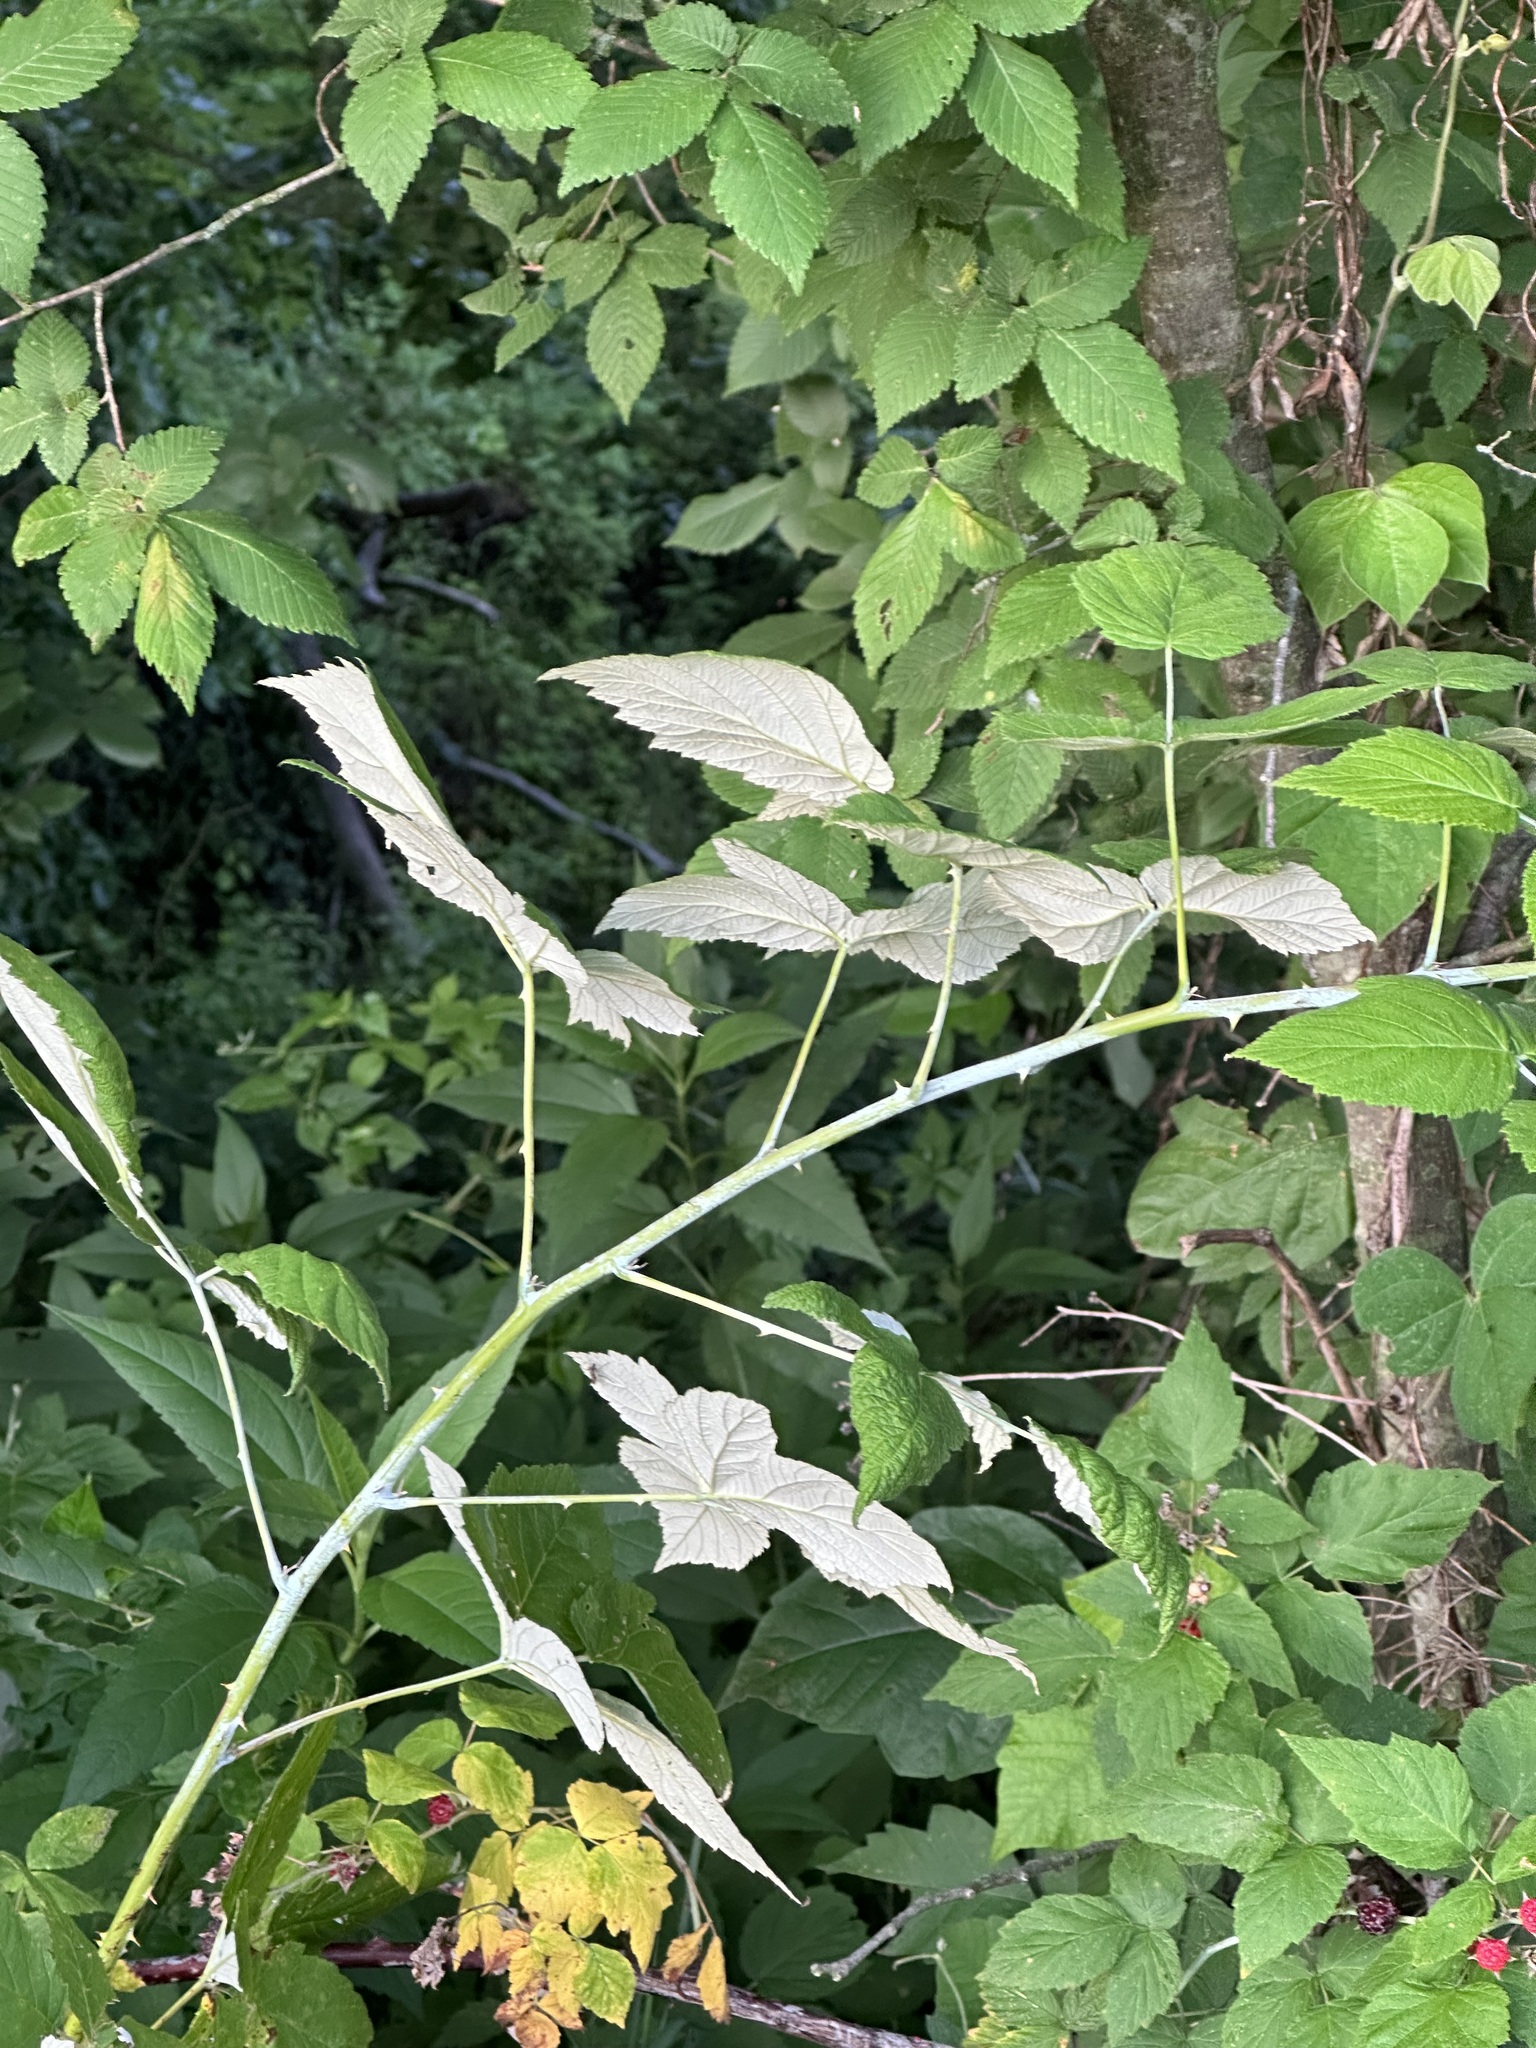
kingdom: Plantae
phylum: Tracheophyta
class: Magnoliopsida
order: Rosales
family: Rosaceae
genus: Rubus
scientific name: Rubus occidentalis
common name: Black raspberry
